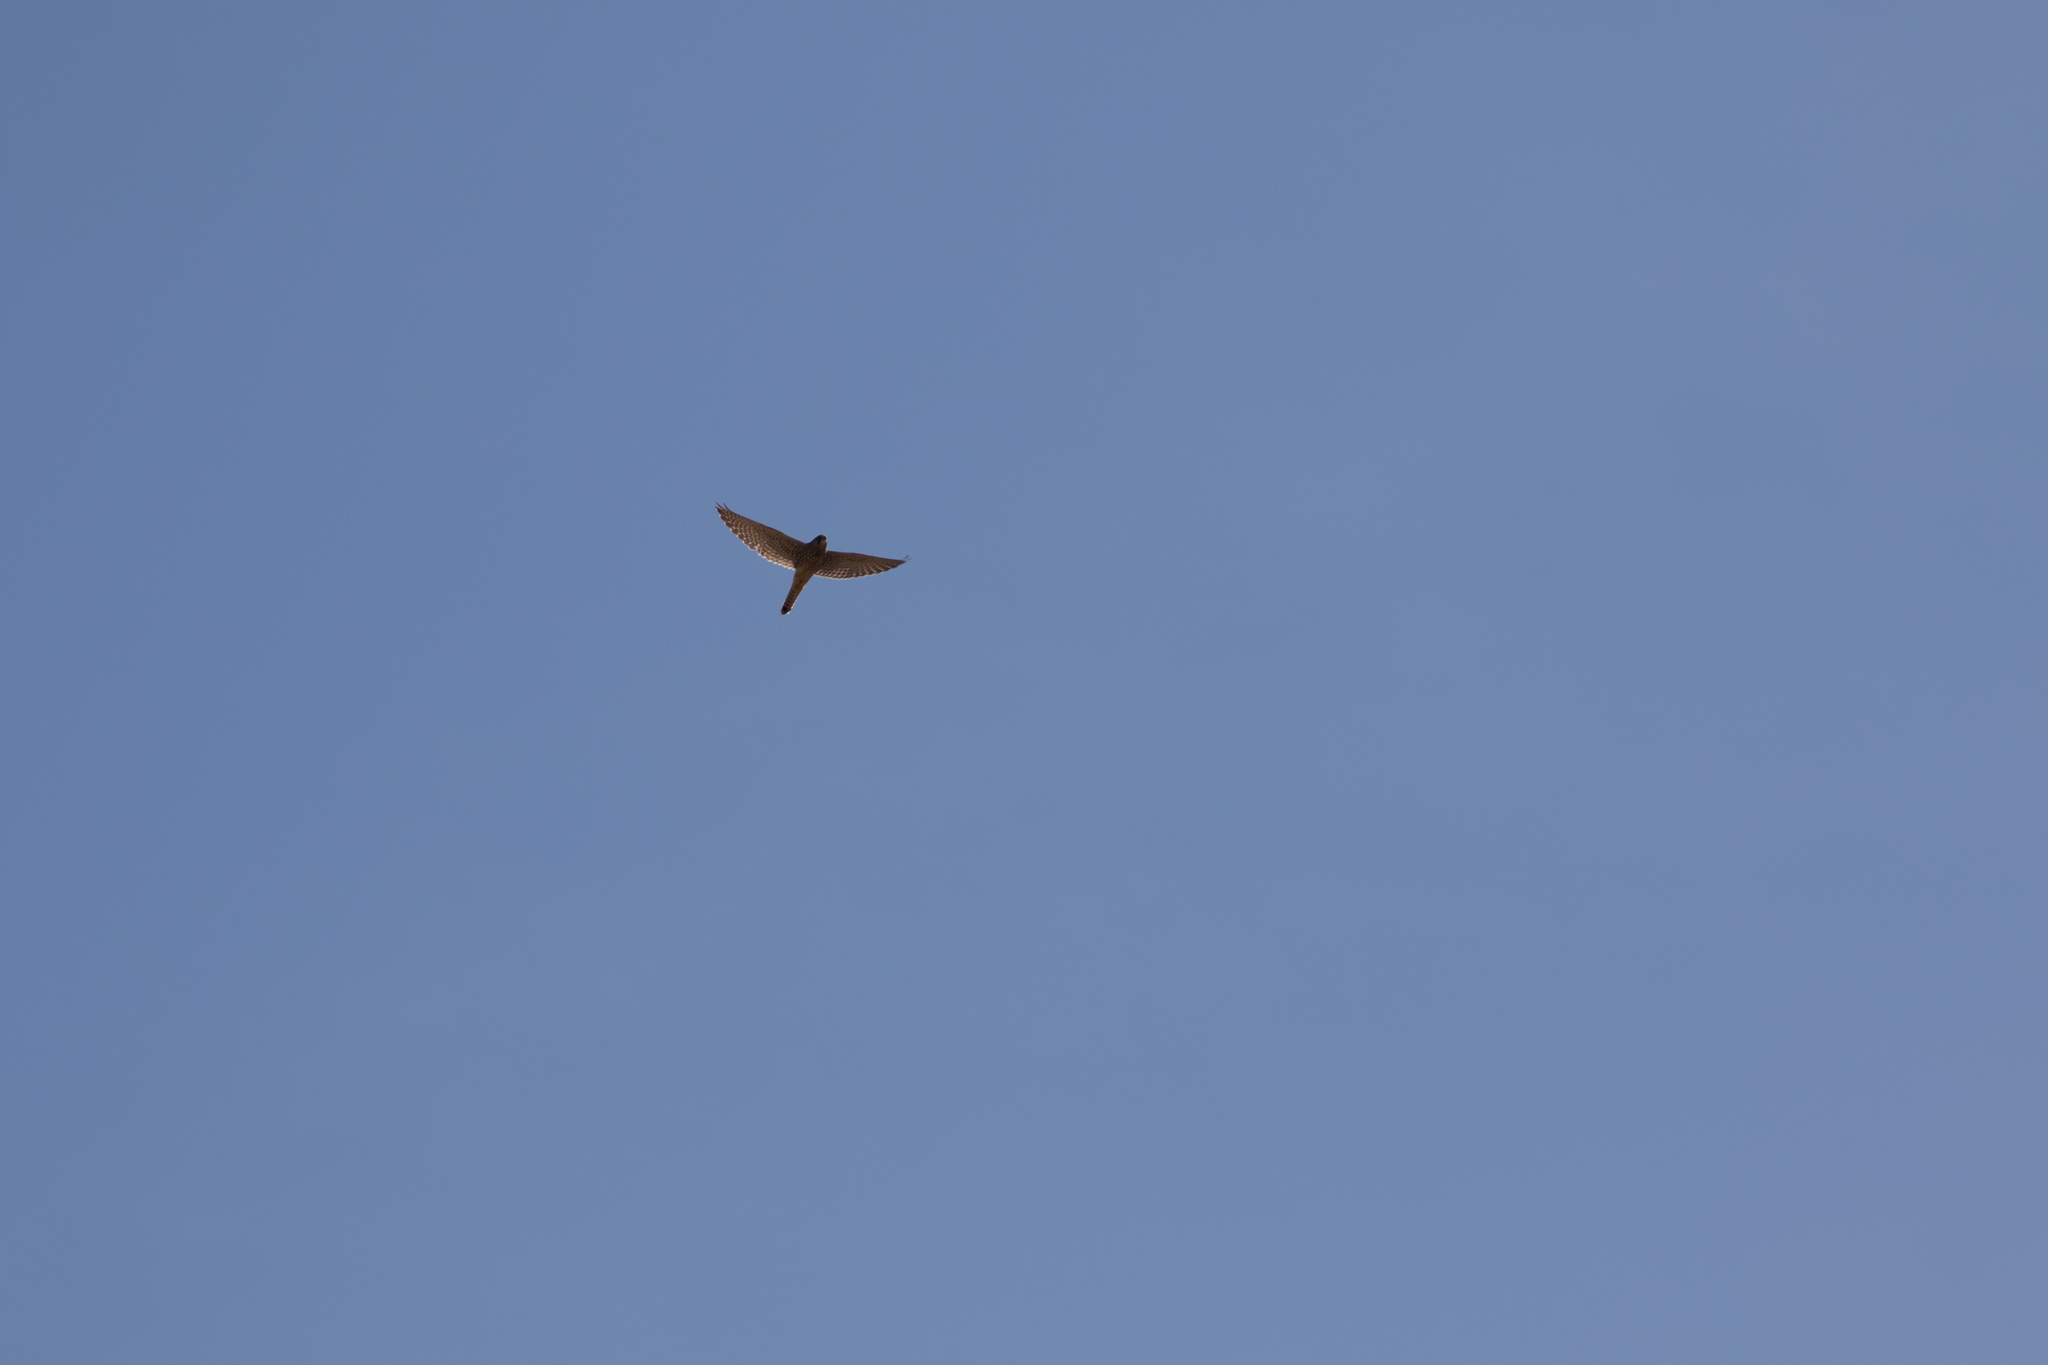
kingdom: Animalia
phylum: Chordata
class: Aves
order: Falconiformes
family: Falconidae
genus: Falco
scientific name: Falco tinnunculus
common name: Common kestrel
